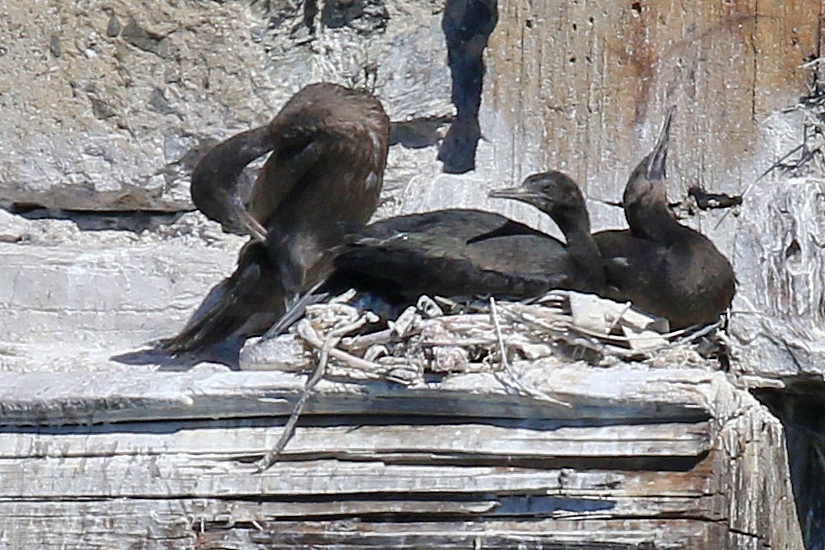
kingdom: Animalia
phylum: Chordata
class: Aves
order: Suliformes
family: Phalacrocoracidae
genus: Phalacrocorax
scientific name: Phalacrocorax neglectus
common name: Bank cormorant
